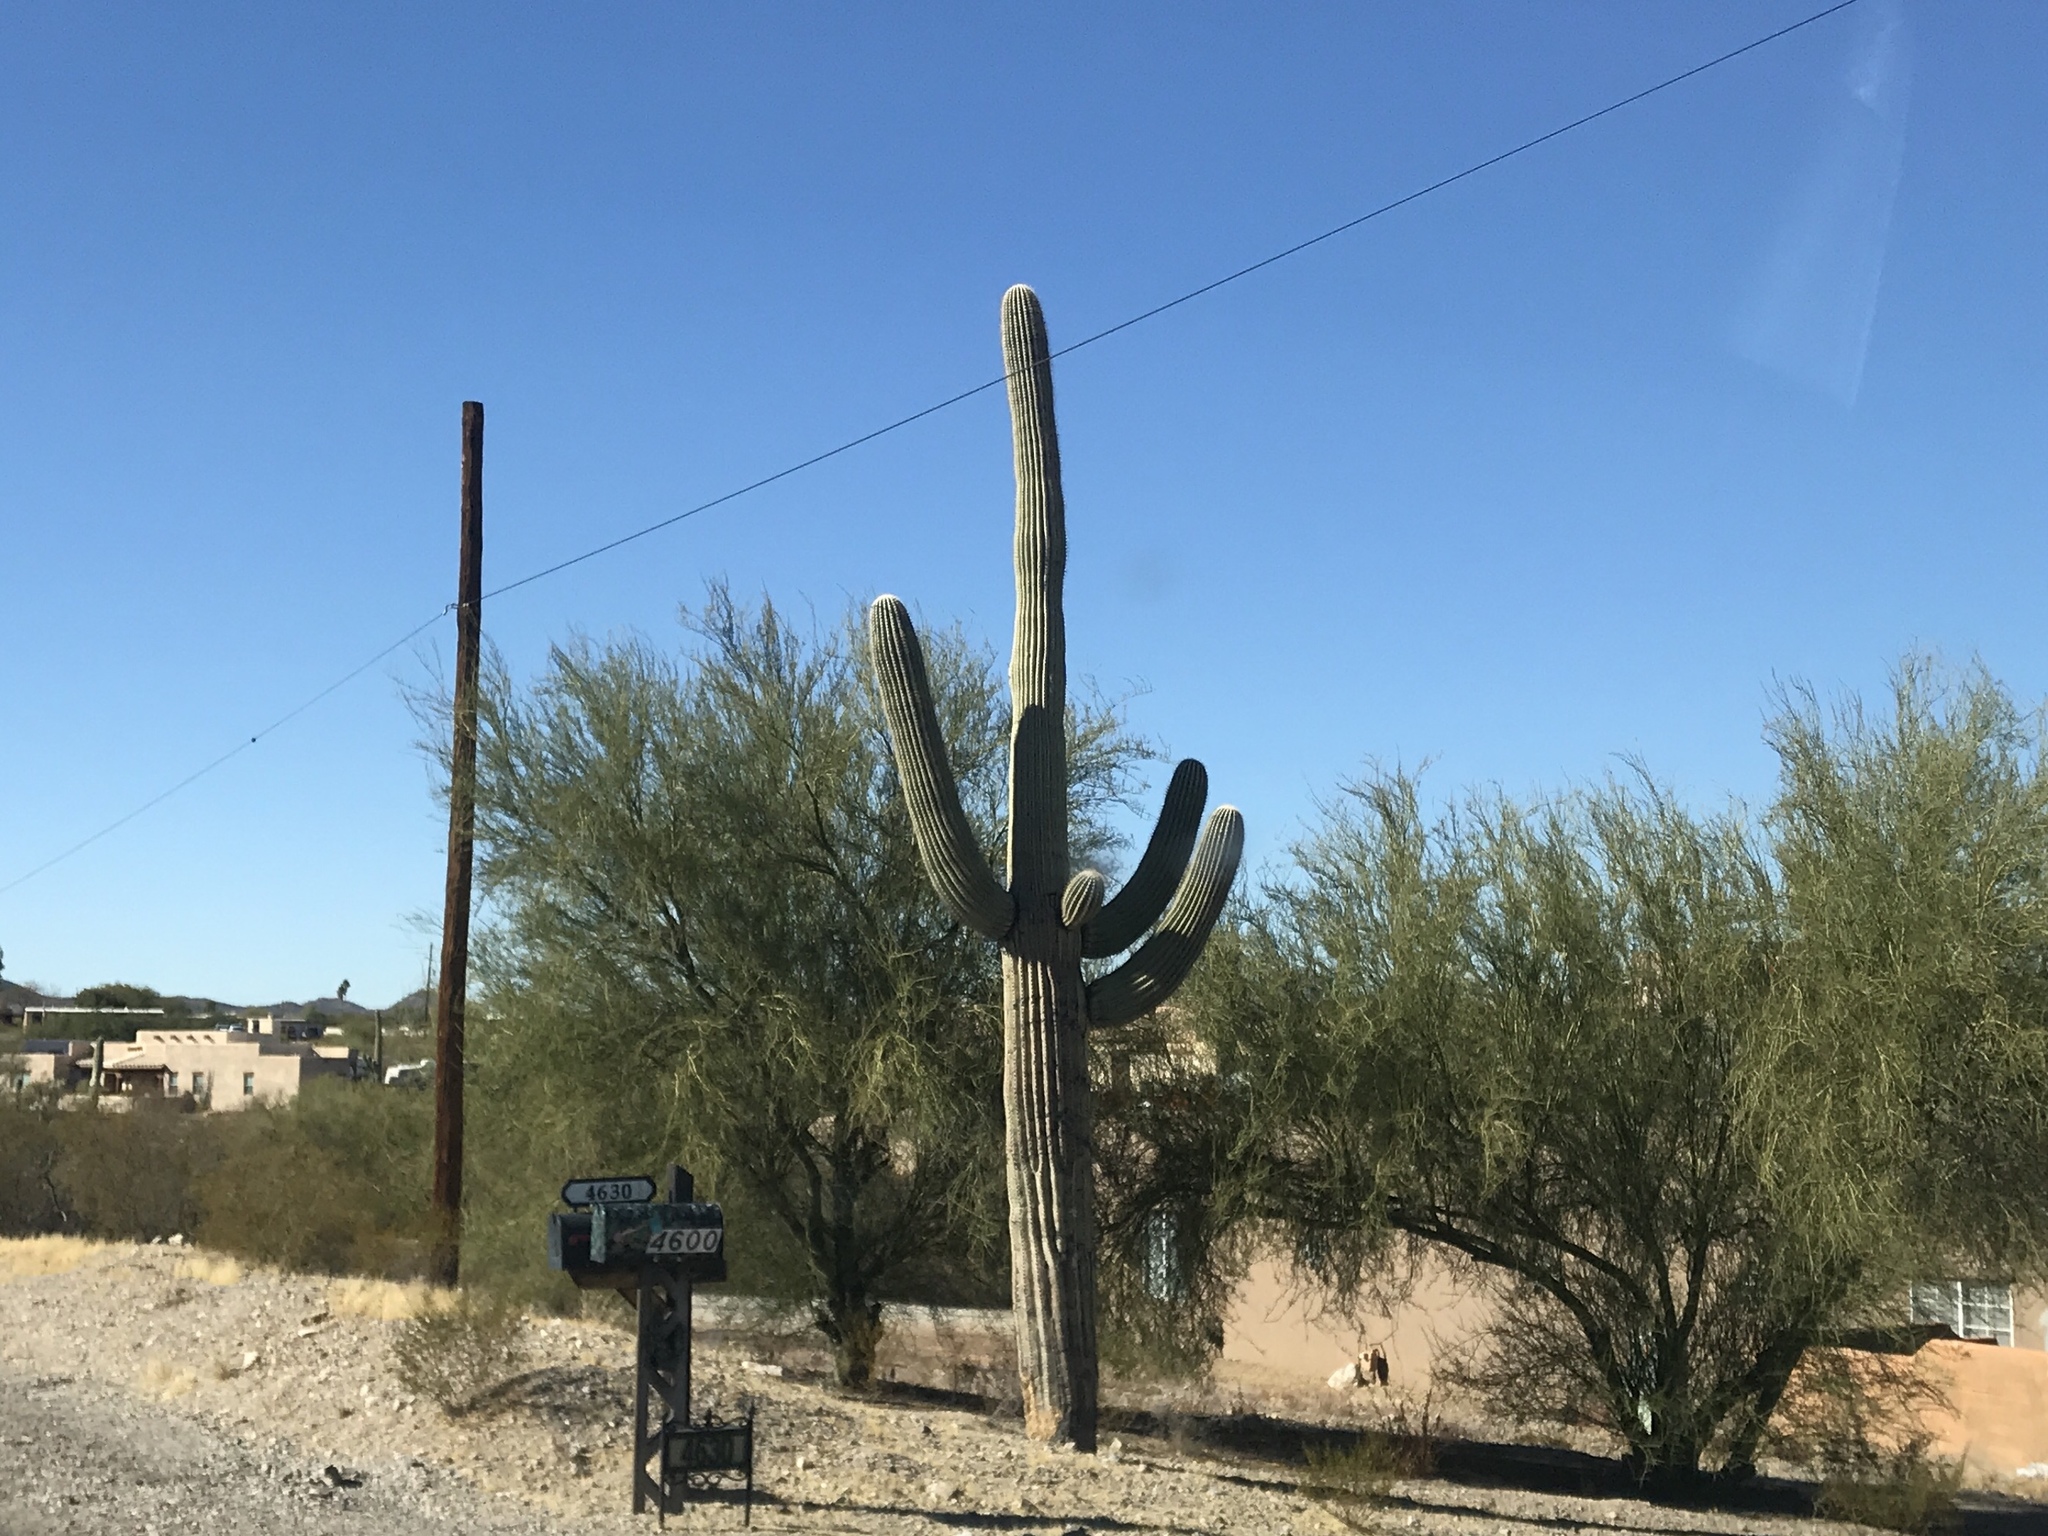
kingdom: Plantae
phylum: Tracheophyta
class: Magnoliopsida
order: Caryophyllales
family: Cactaceae
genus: Carnegiea
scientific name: Carnegiea gigantea
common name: Saguaro
